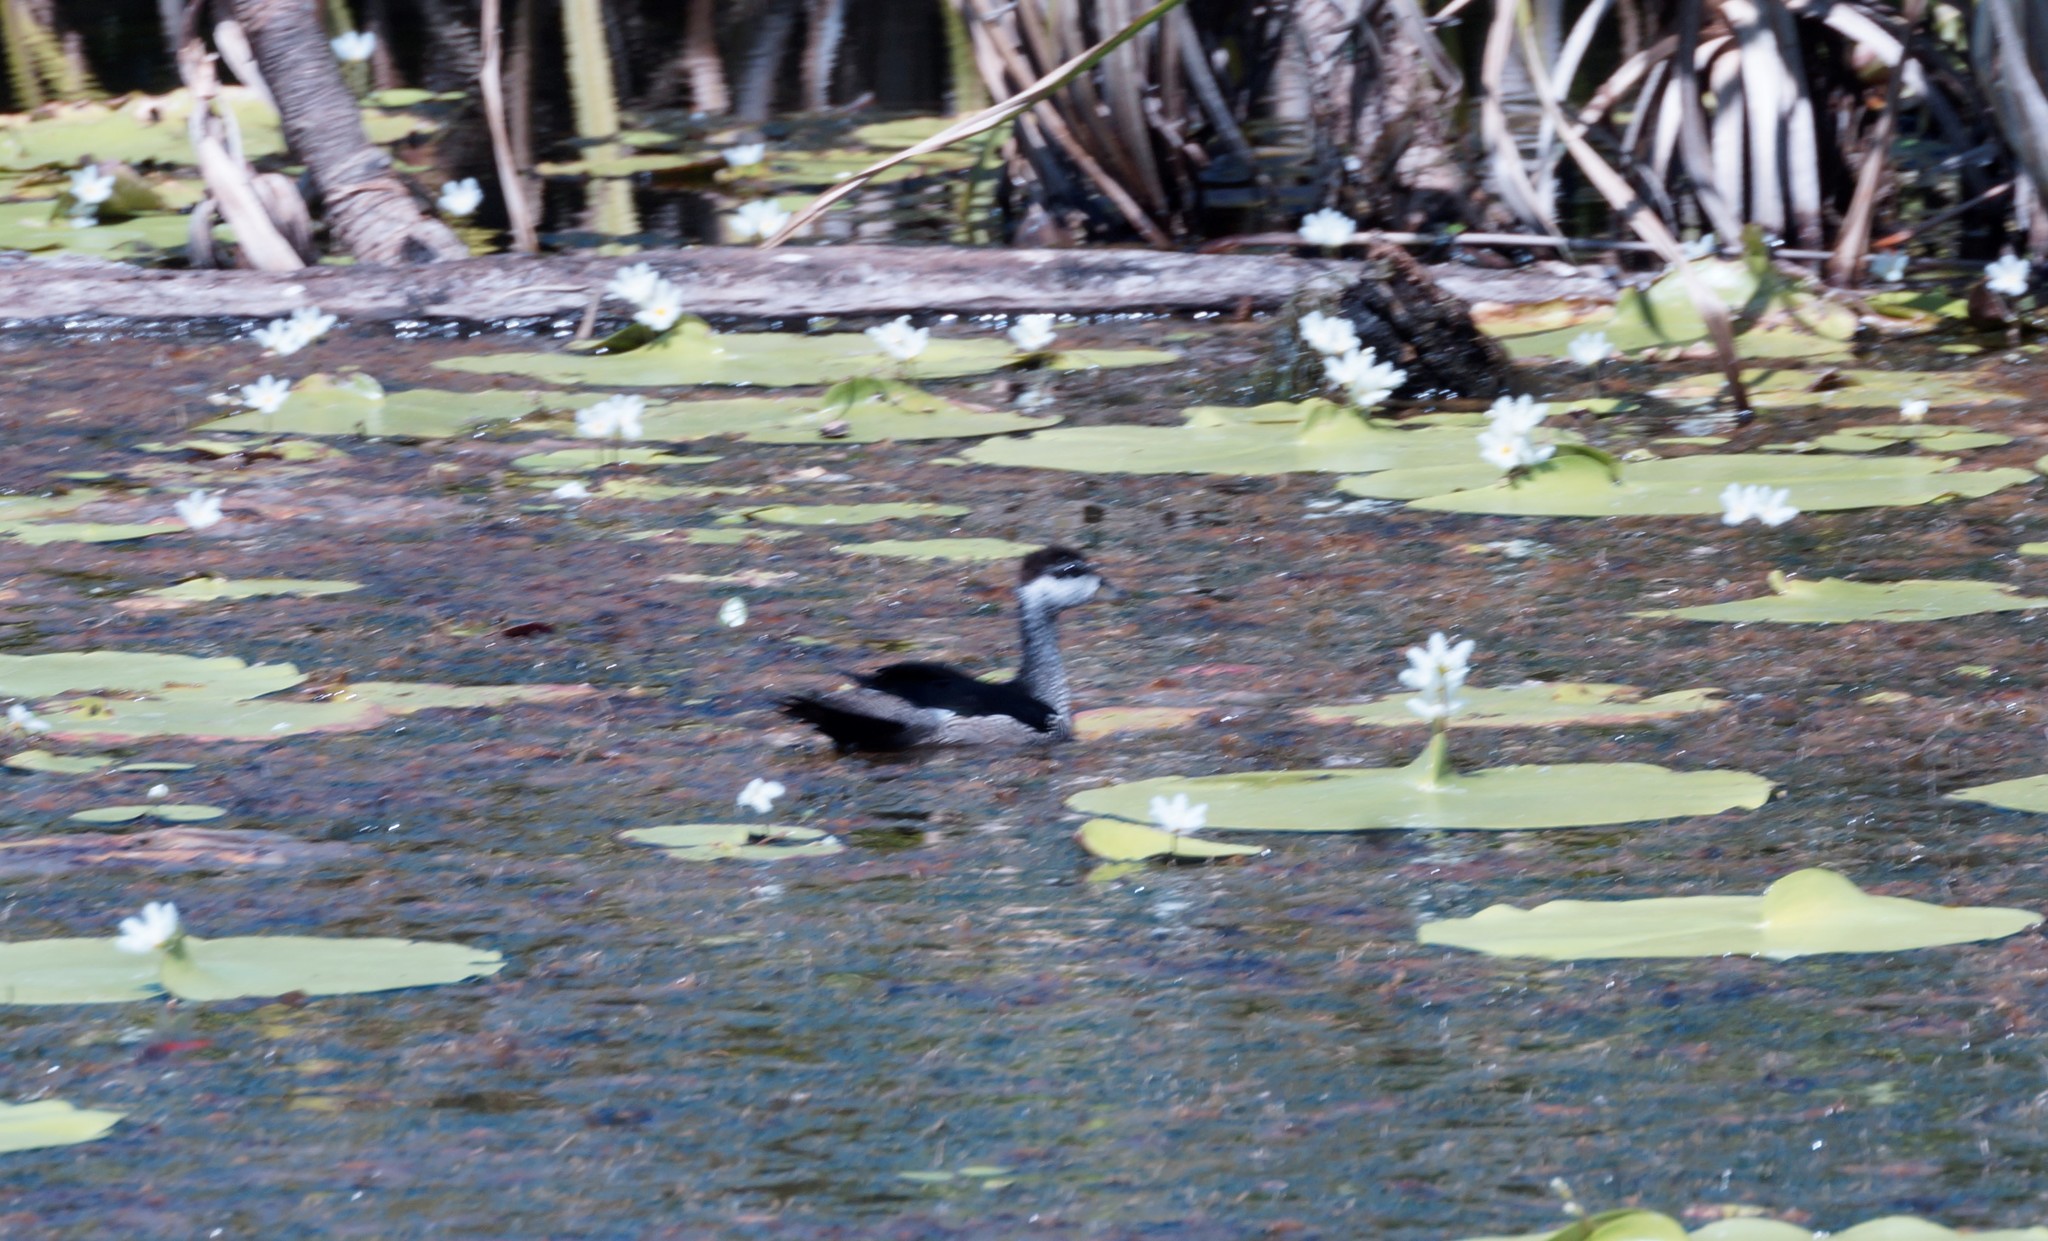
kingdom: Animalia
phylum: Chordata
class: Aves
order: Anseriformes
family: Anatidae
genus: Nettapus
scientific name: Nettapus pulchellus
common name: Green pygmy-goose
